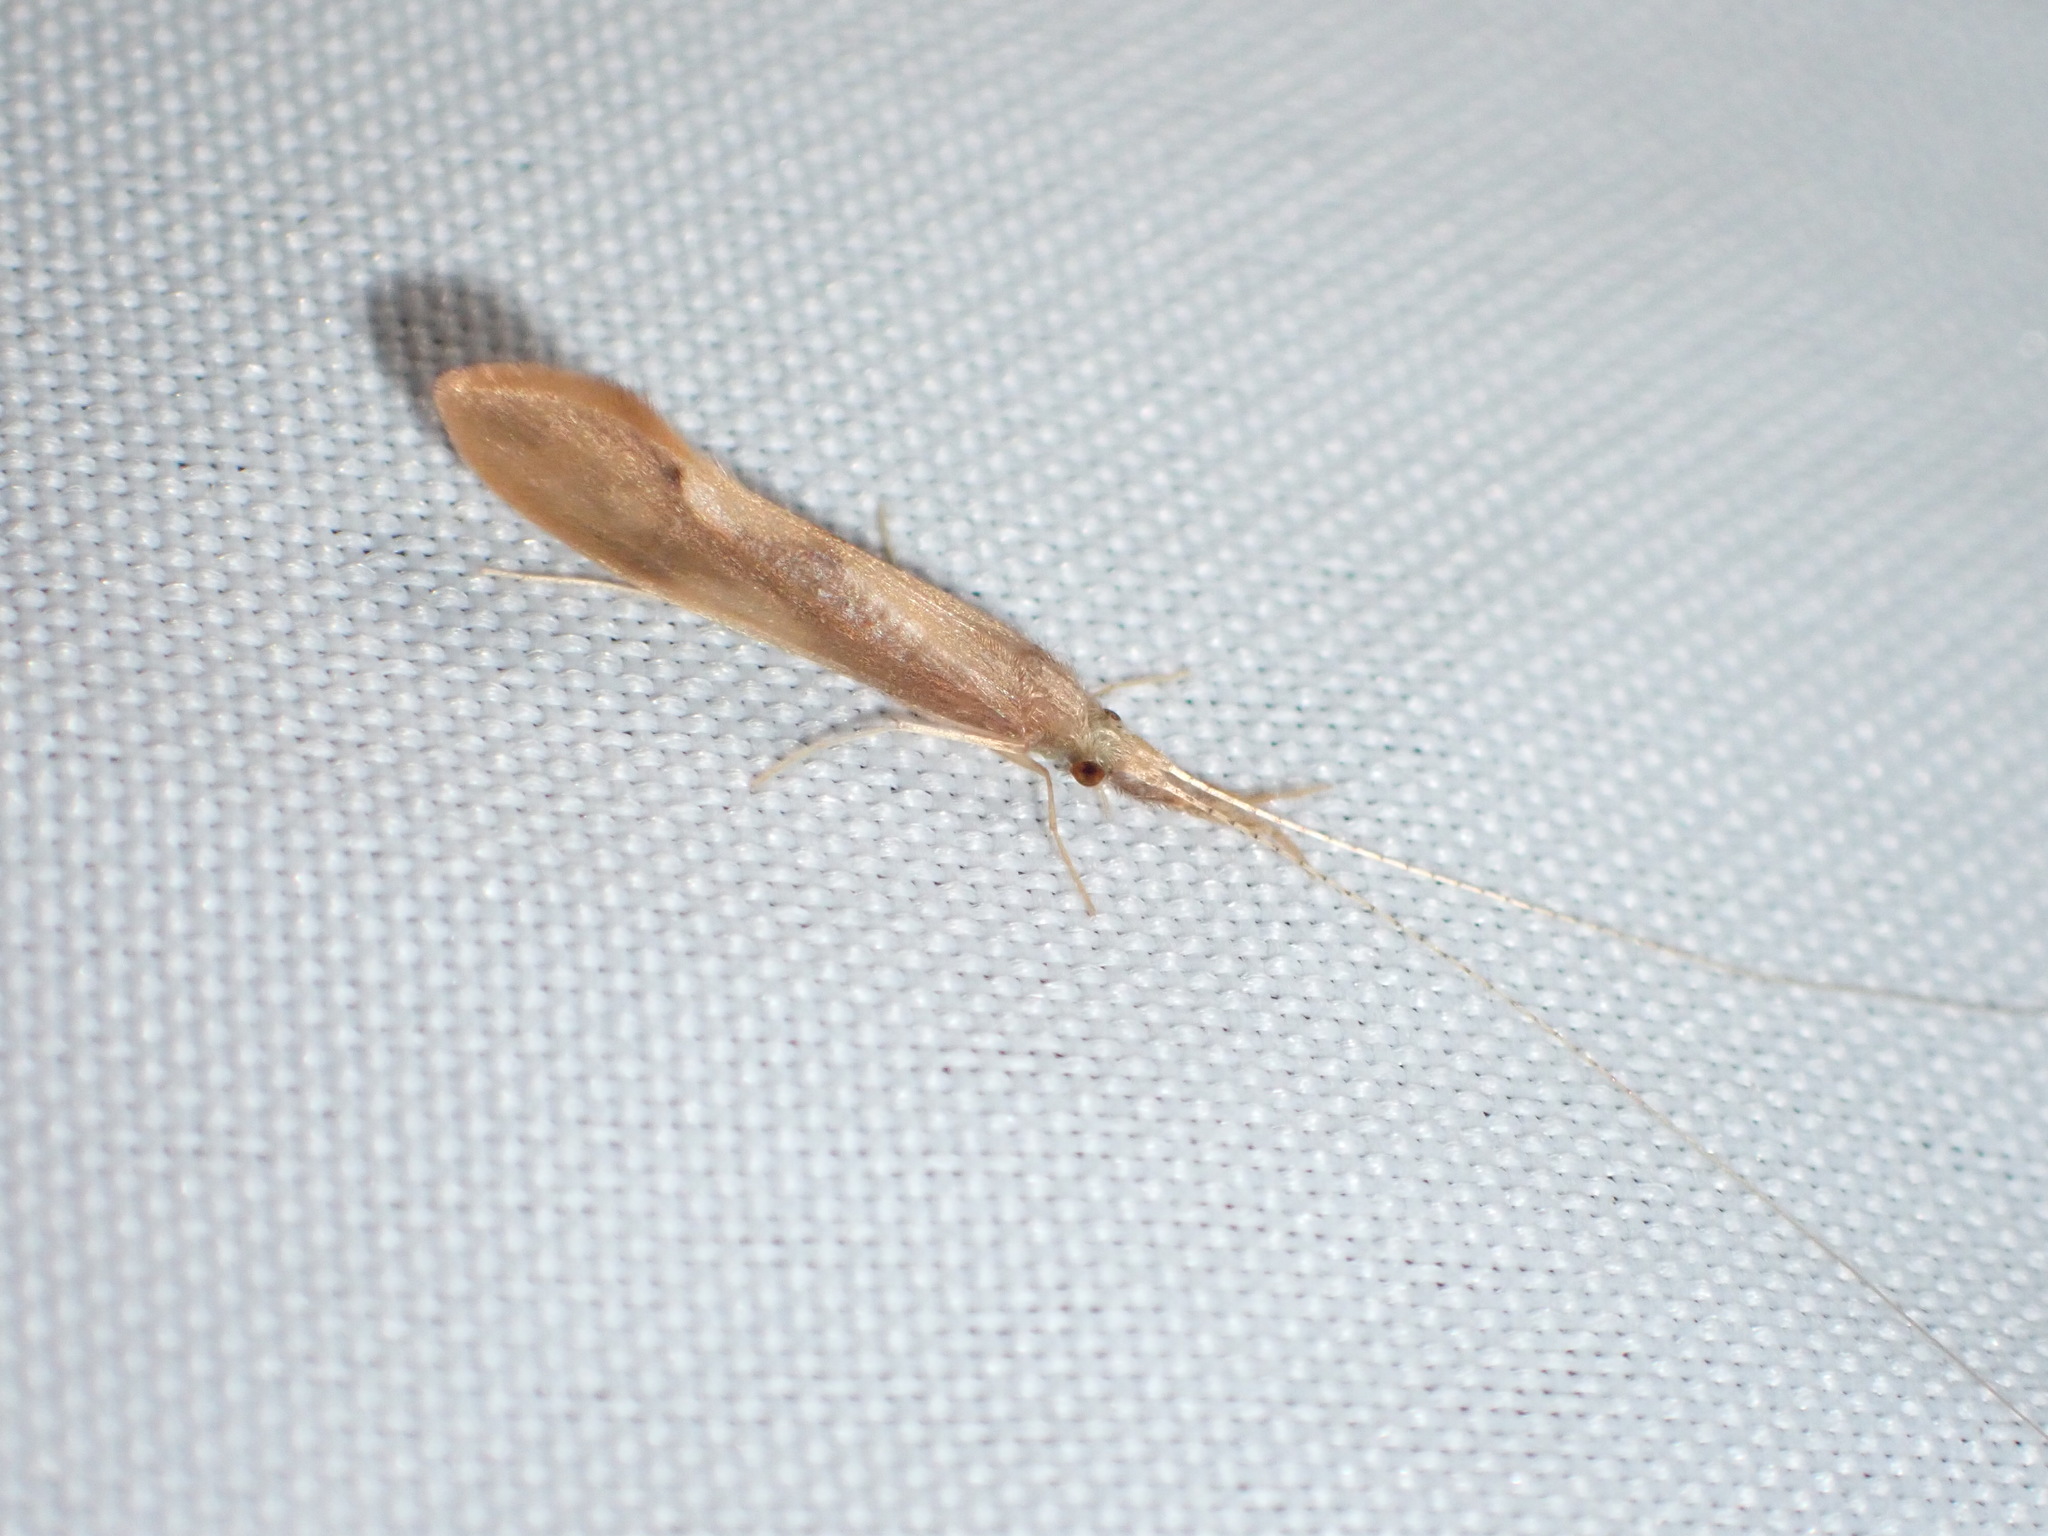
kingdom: Animalia
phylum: Arthropoda
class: Insecta
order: Trichoptera
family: Leptoceridae
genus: Triaenodes
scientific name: Triaenodes tardus
